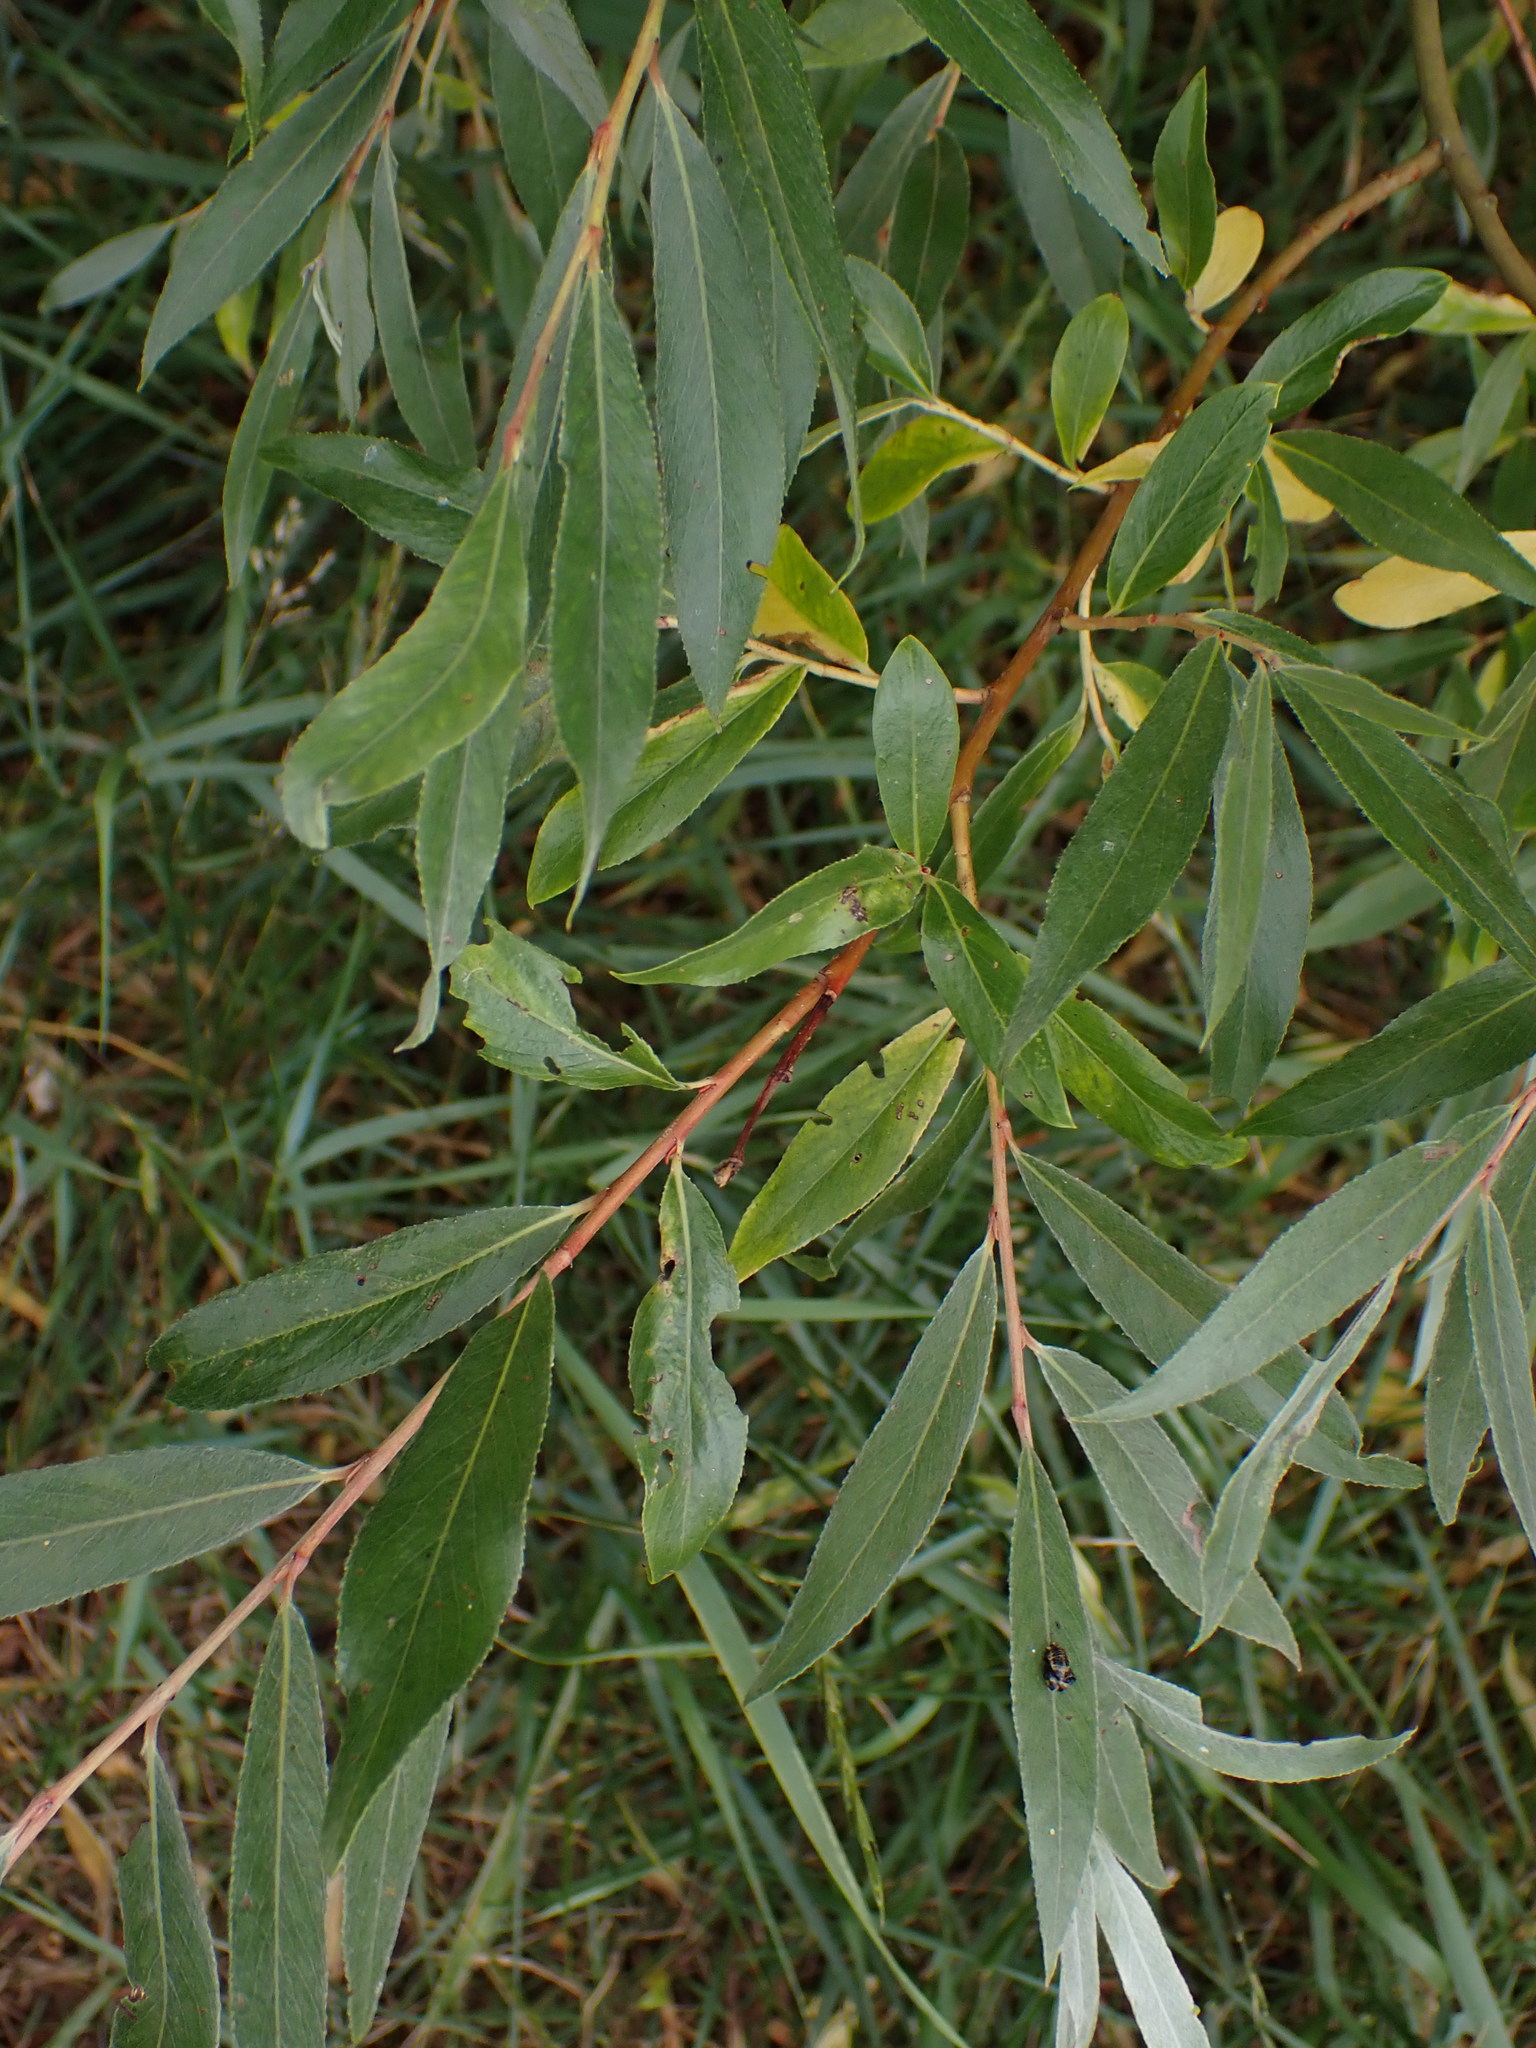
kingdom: Plantae
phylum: Tracheophyta
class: Magnoliopsida
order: Malpighiales
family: Salicaceae
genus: Salix
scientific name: Salix alba
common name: White willow
